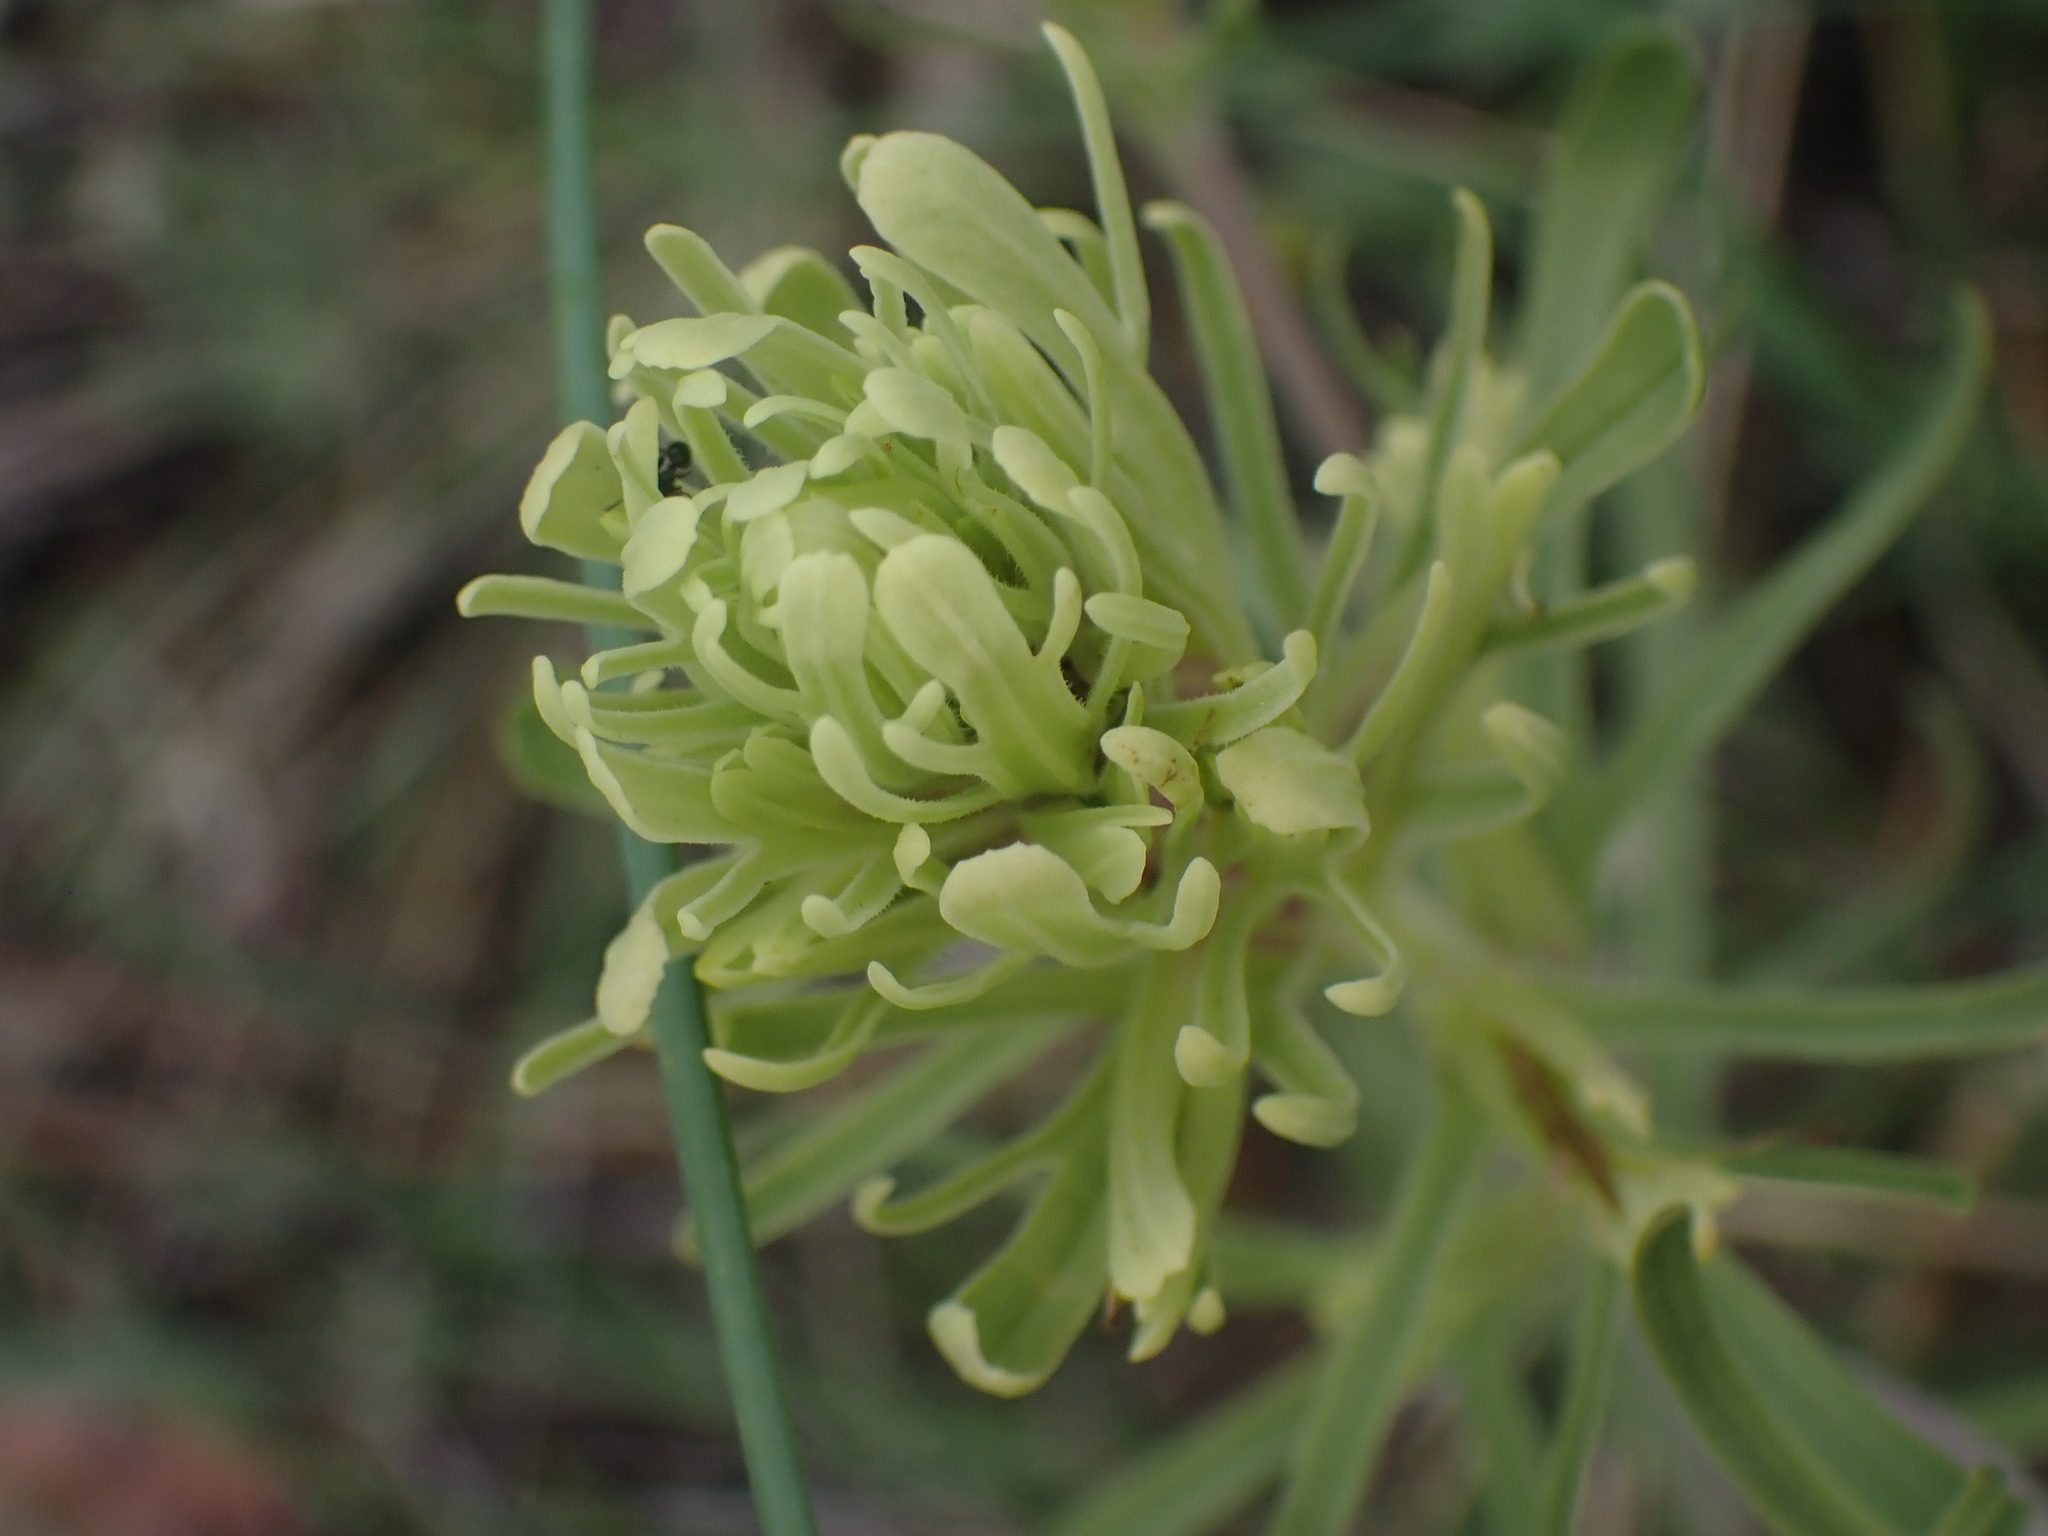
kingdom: Plantae
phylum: Tracheophyta
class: Magnoliopsida
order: Lamiales
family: Orobanchaceae
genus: Castilleja
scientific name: Castilleja thompsonii
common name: Thompson's paintbrush
